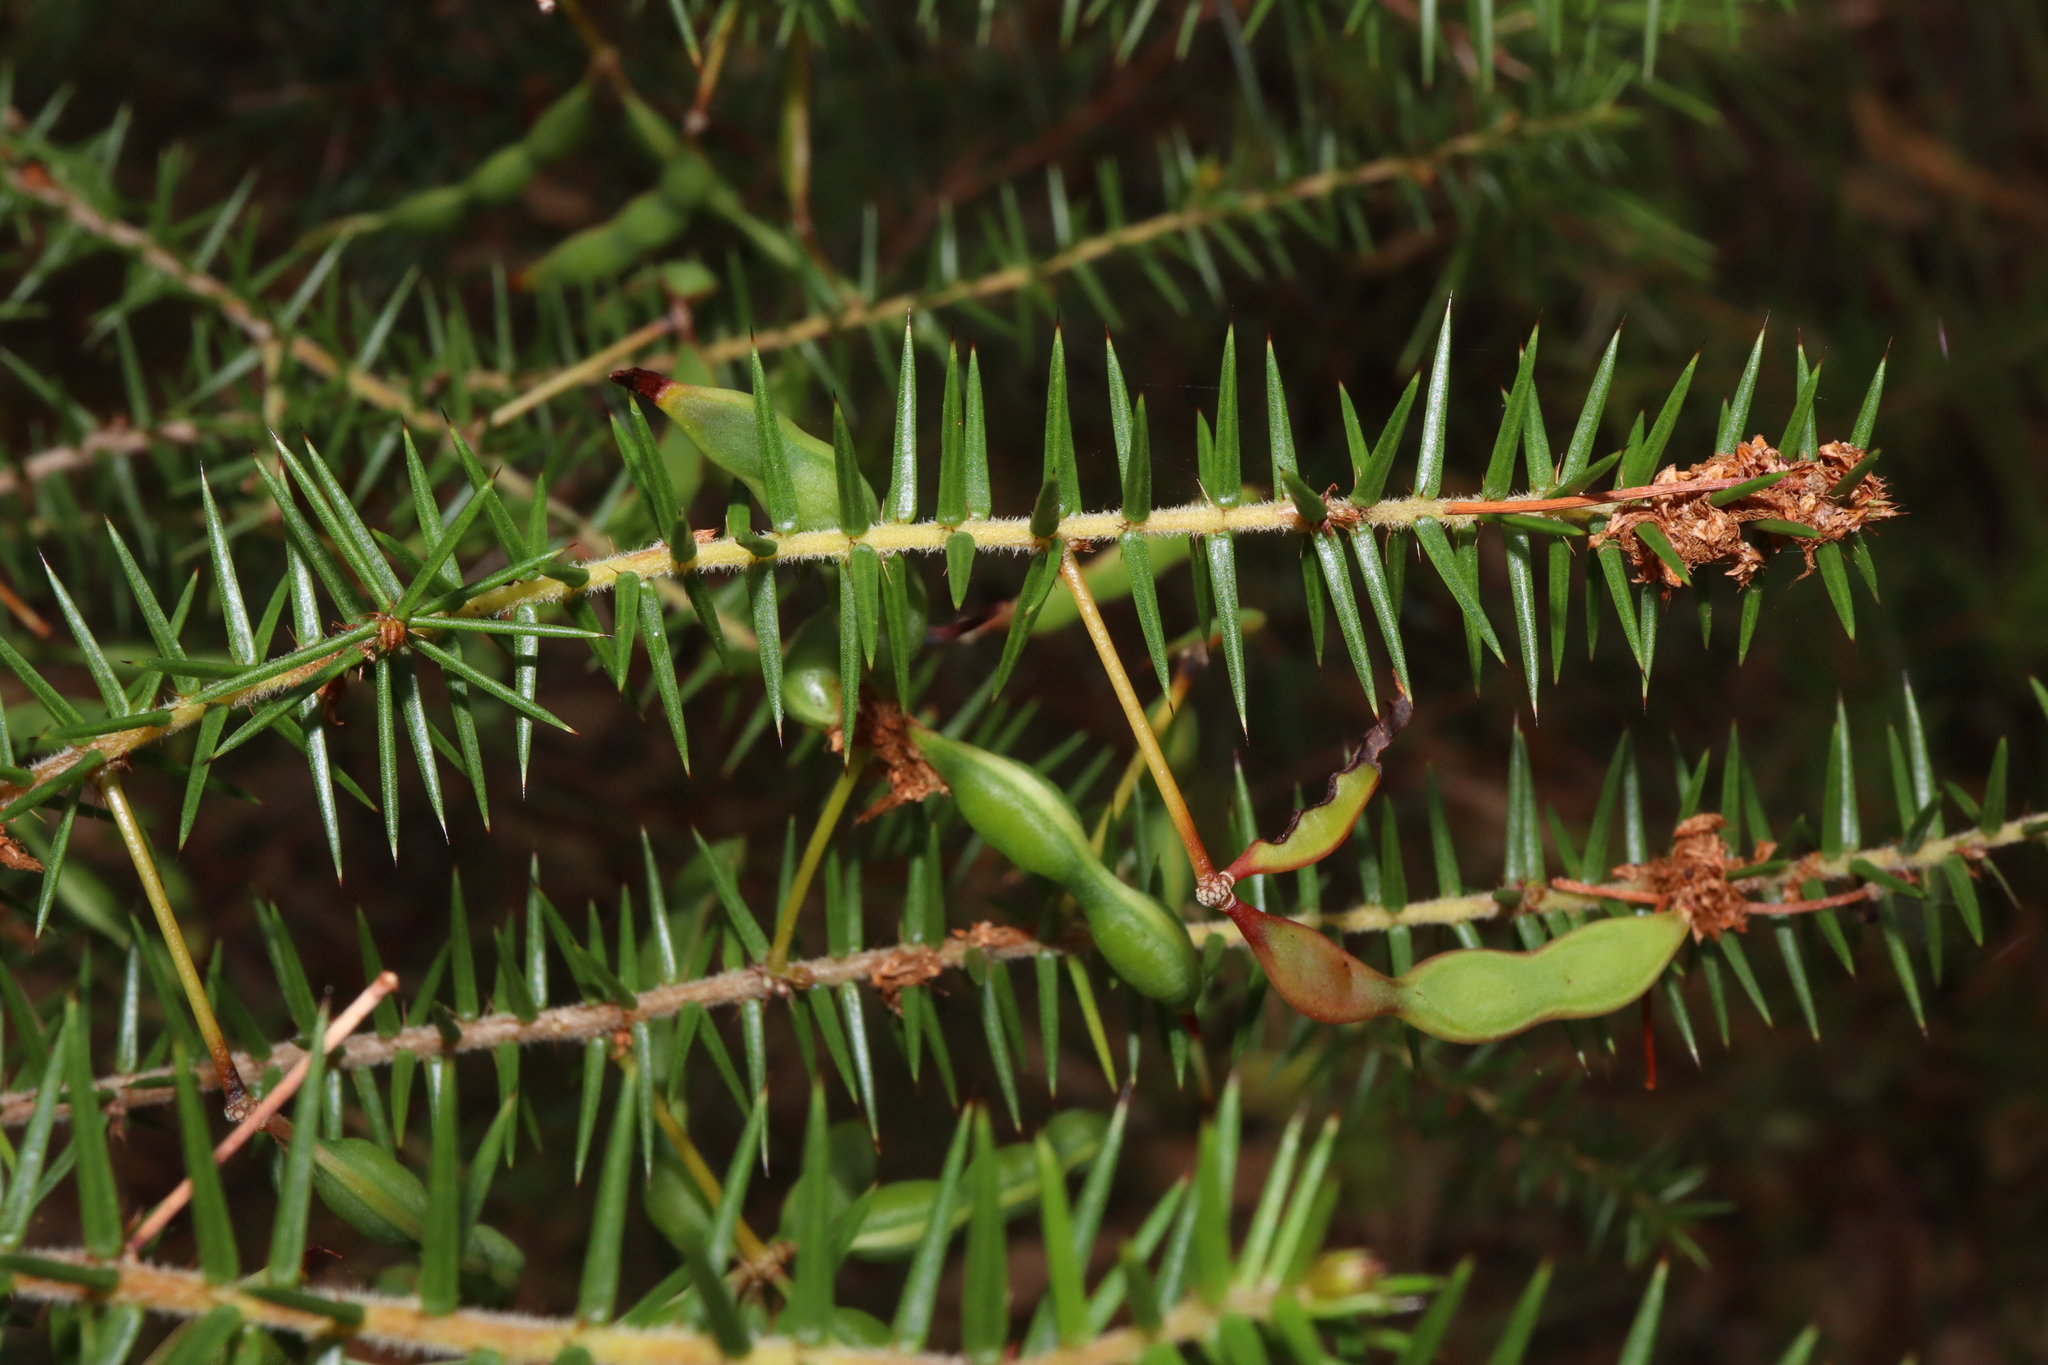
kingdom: Plantae
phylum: Tracheophyta
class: Magnoliopsida
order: Fabales
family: Fabaceae
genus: Acacia
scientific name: Acacia ulicifolia
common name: Juniper wattle
